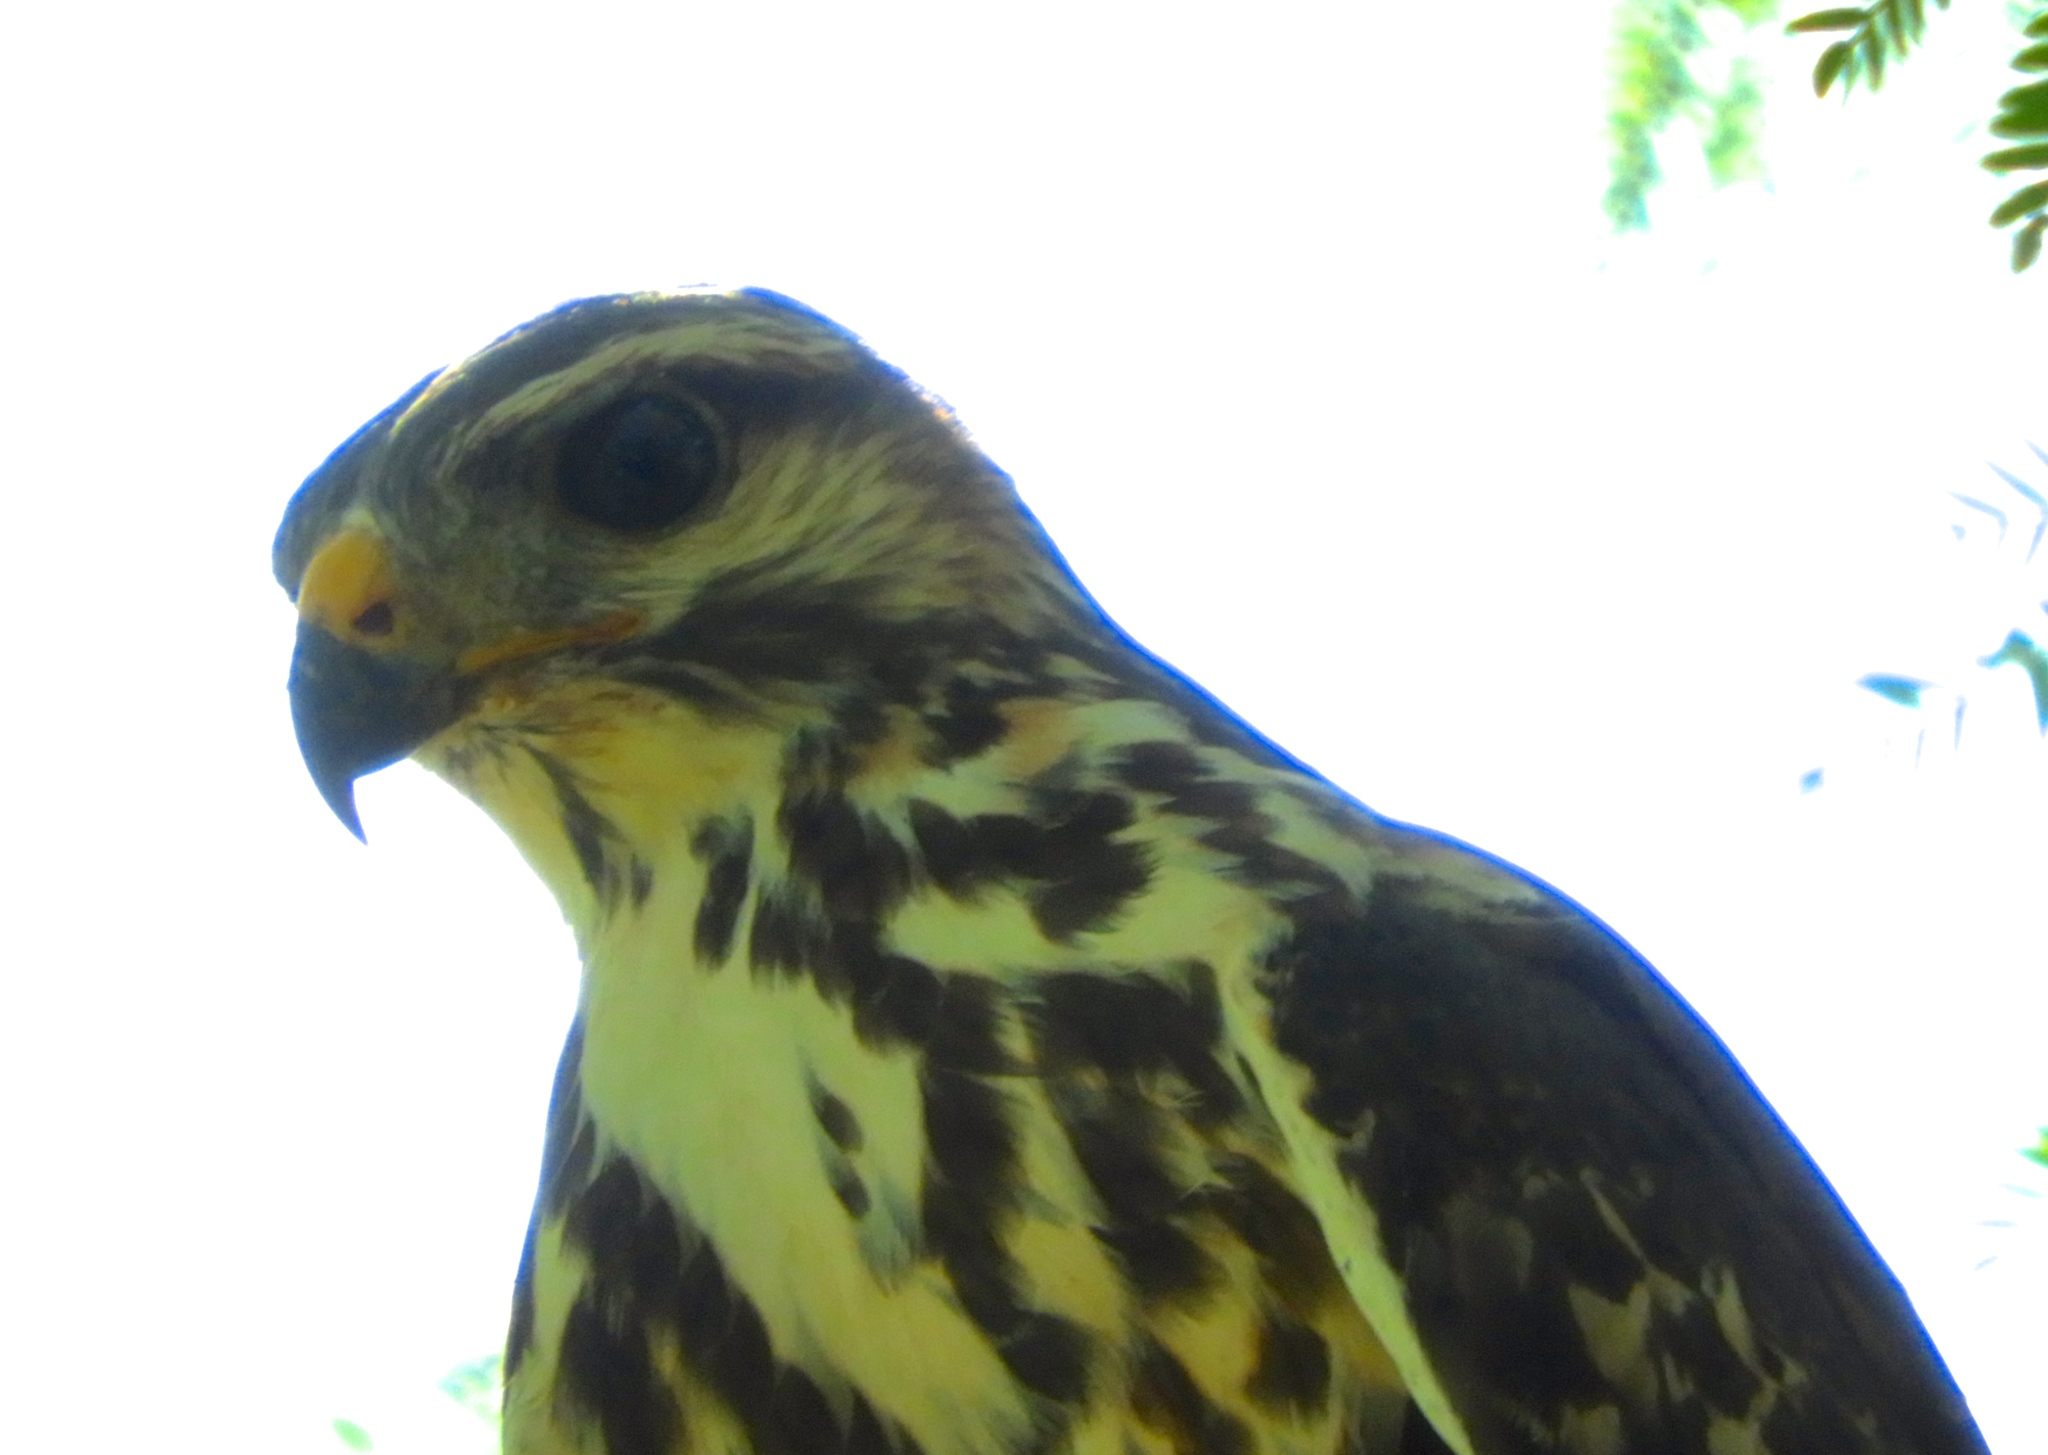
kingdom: Animalia
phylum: Chordata
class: Aves
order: Accipitriformes
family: Accipitridae
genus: Buteo
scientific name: Buteo nitidus
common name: Grey-lined hawk
